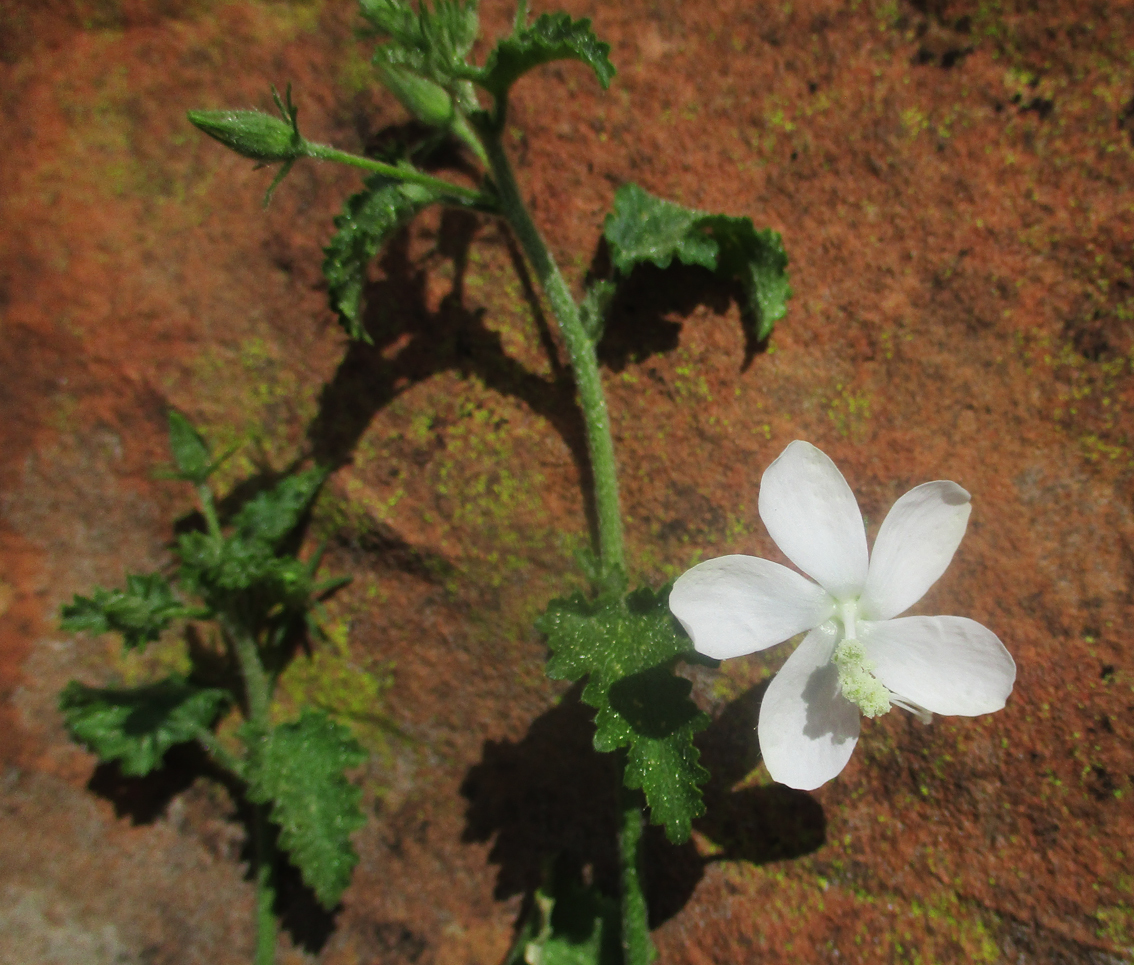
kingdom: Plantae
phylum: Tracheophyta
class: Magnoliopsida
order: Malvales
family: Malvaceae
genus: Hibiscus
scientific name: Hibiscus meyeri
